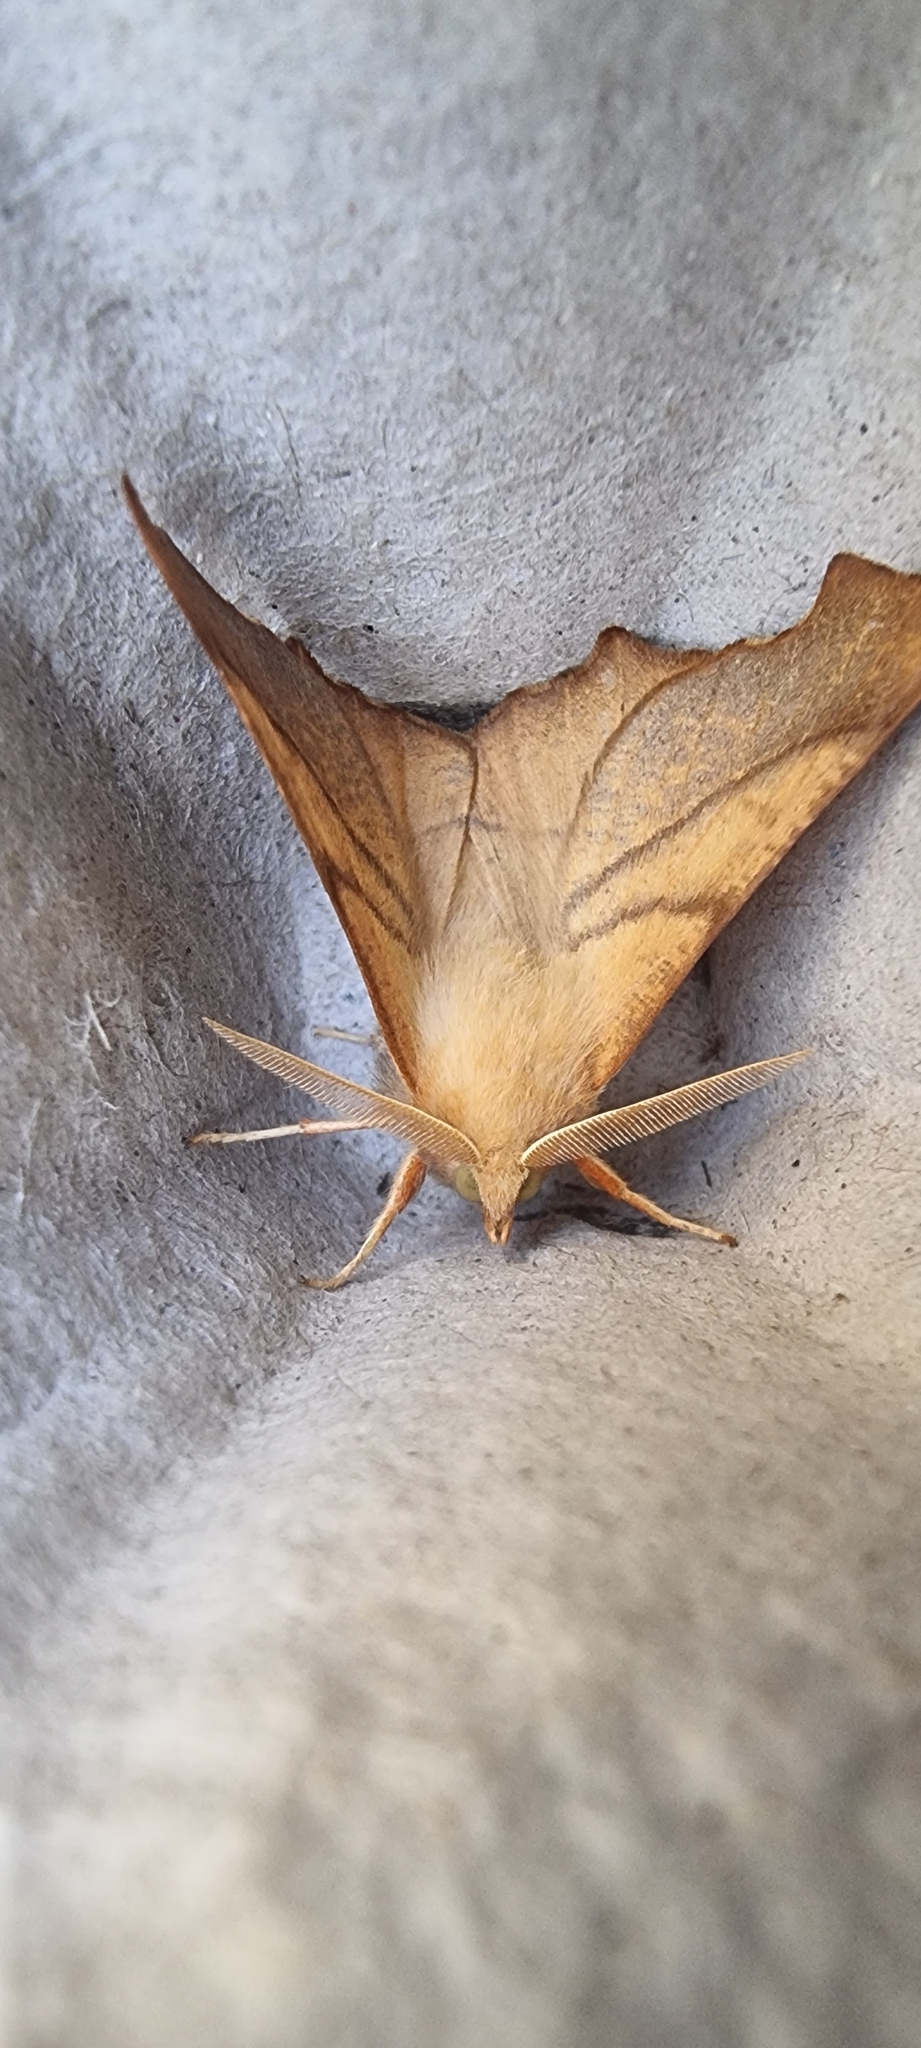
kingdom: Animalia
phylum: Arthropoda
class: Insecta
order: Lepidoptera
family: Geometridae
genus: Ennomos
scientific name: Ennomos fuscantaria
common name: Dusky thorn
